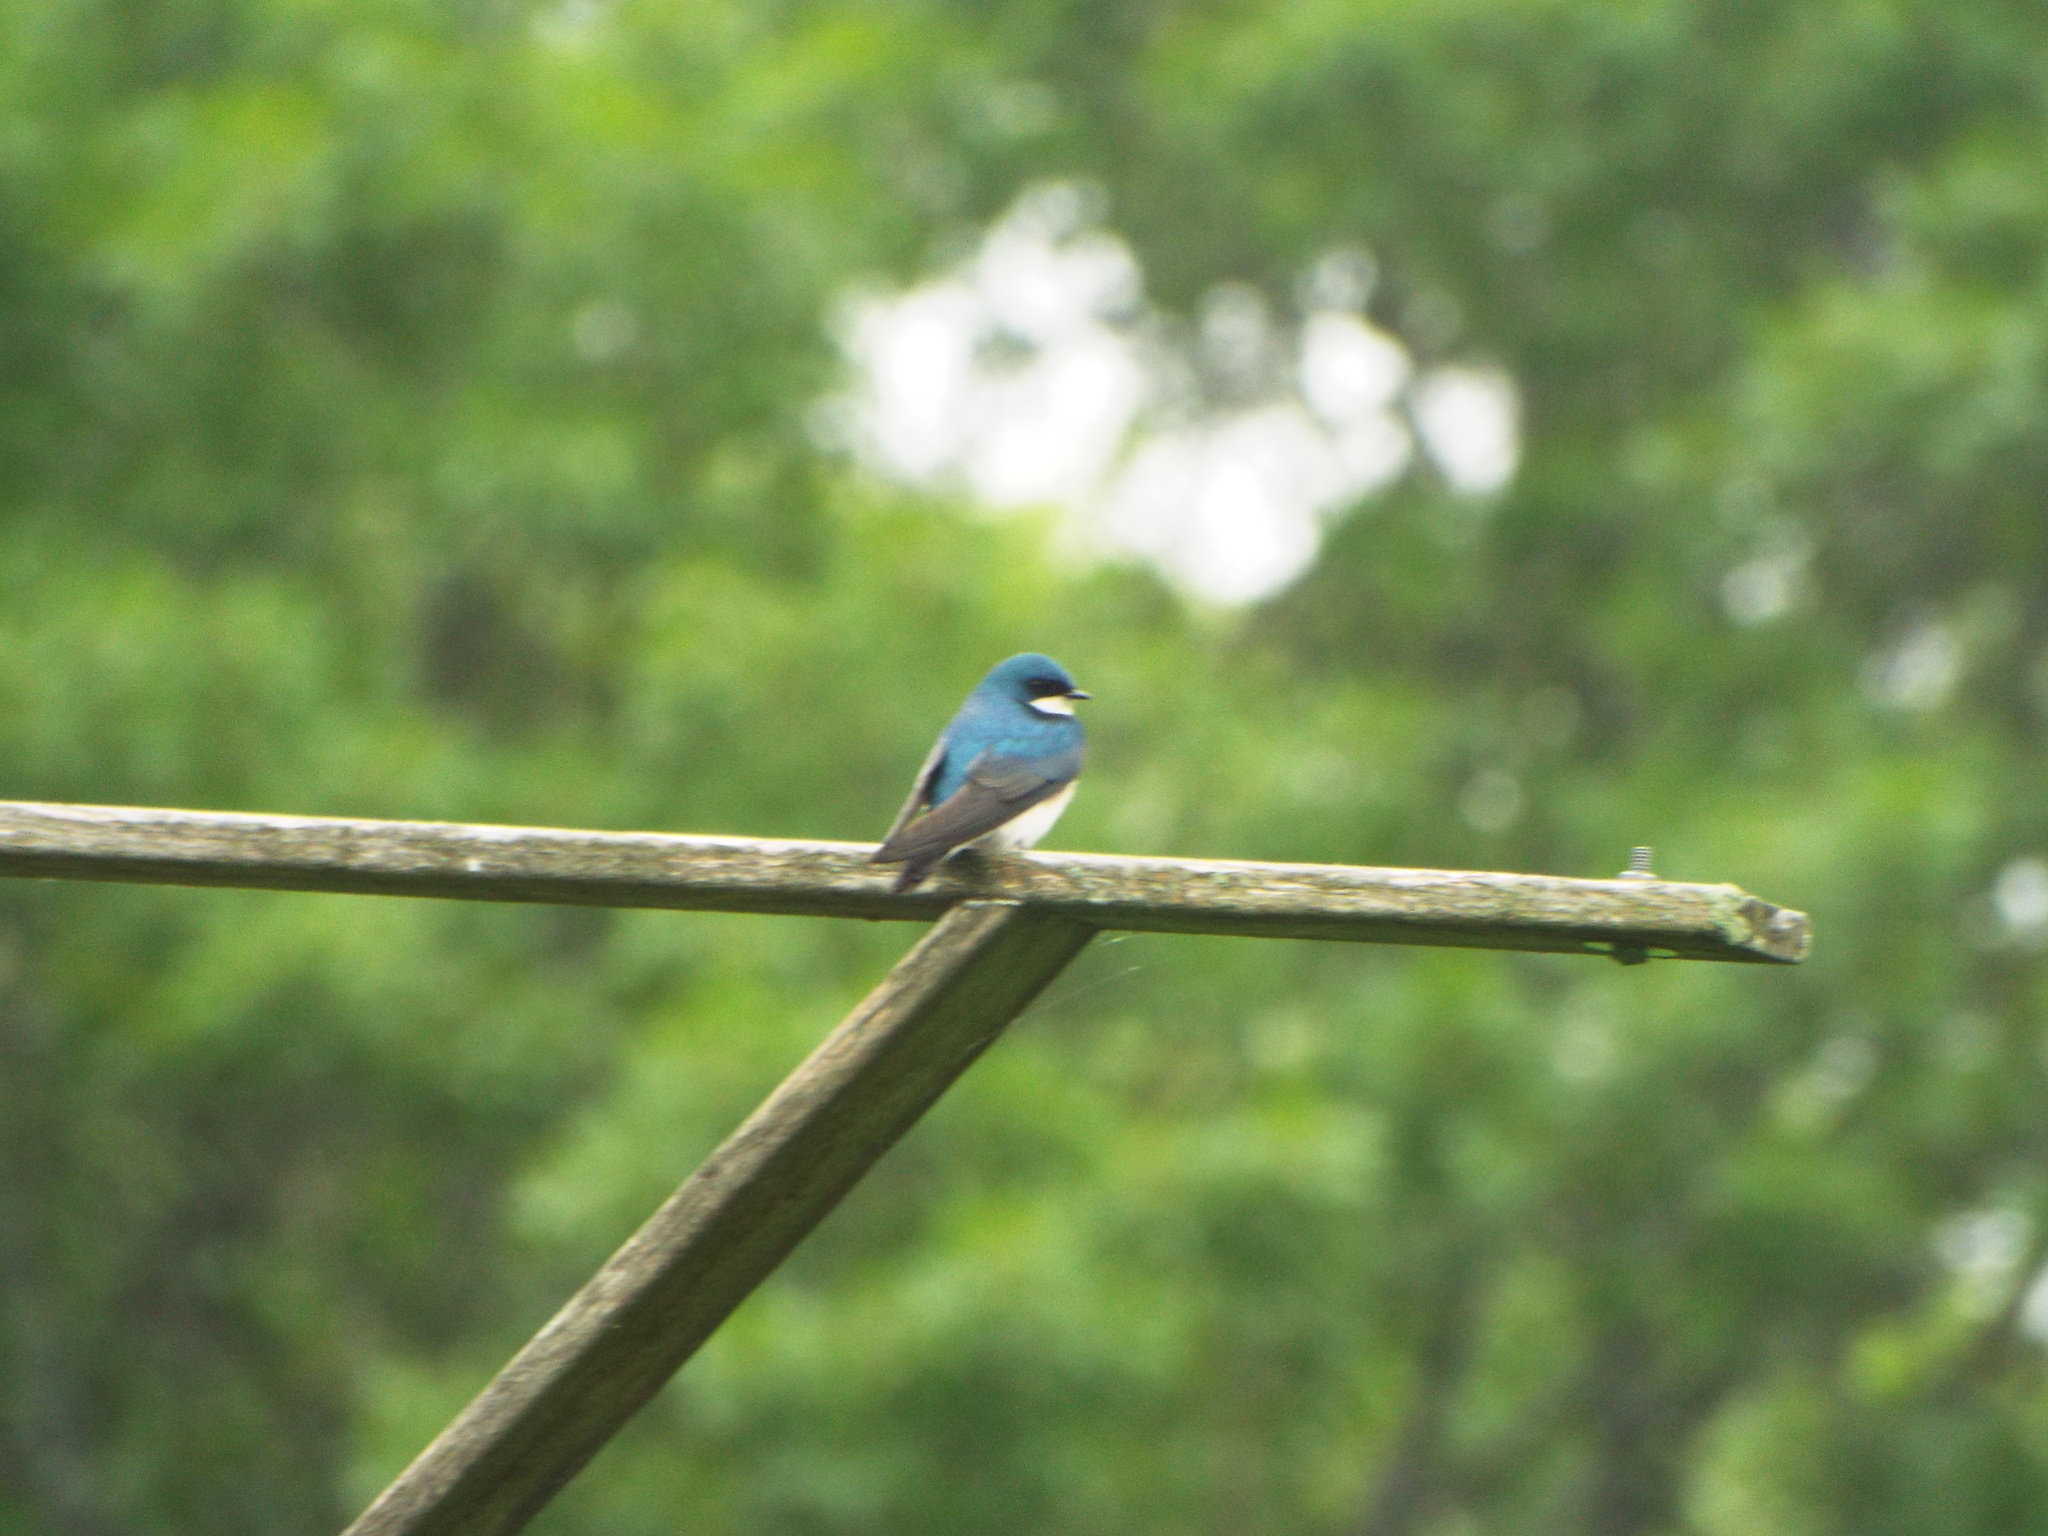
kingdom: Animalia
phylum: Chordata
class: Aves
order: Passeriformes
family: Hirundinidae
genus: Tachycineta
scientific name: Tachycineta bicolor
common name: Tree swallow
